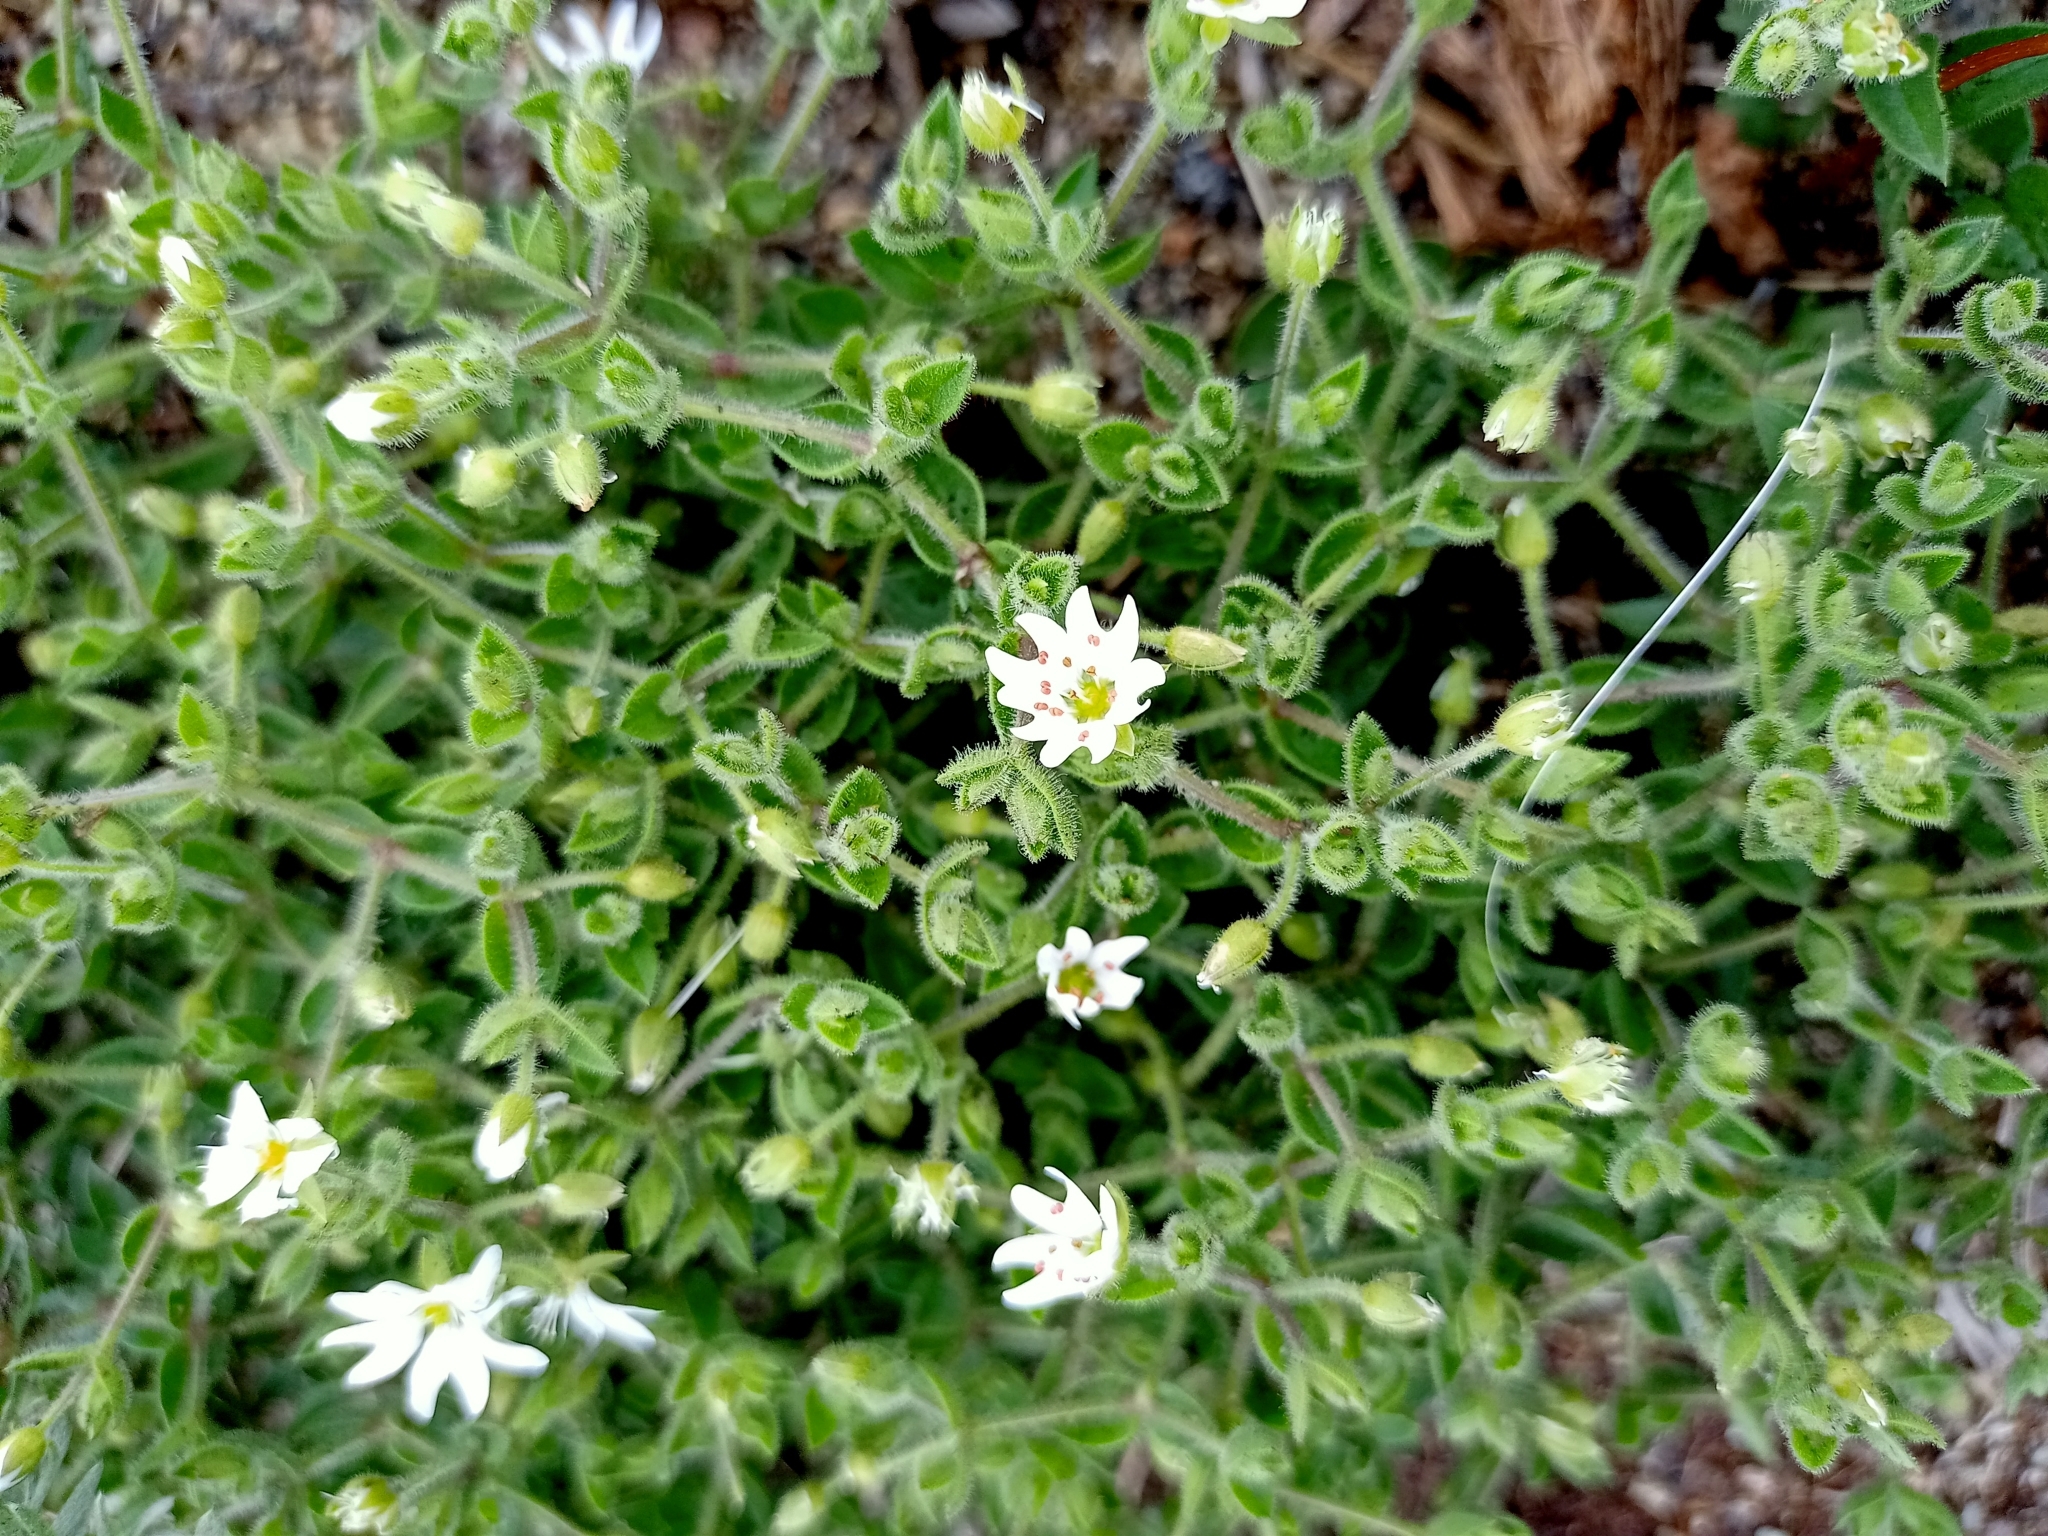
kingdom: Plantae
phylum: Tracheophyta
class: Magnoliopsida
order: Caryophyllales
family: Caryophyllaceae
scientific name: Caryophyllaceae
